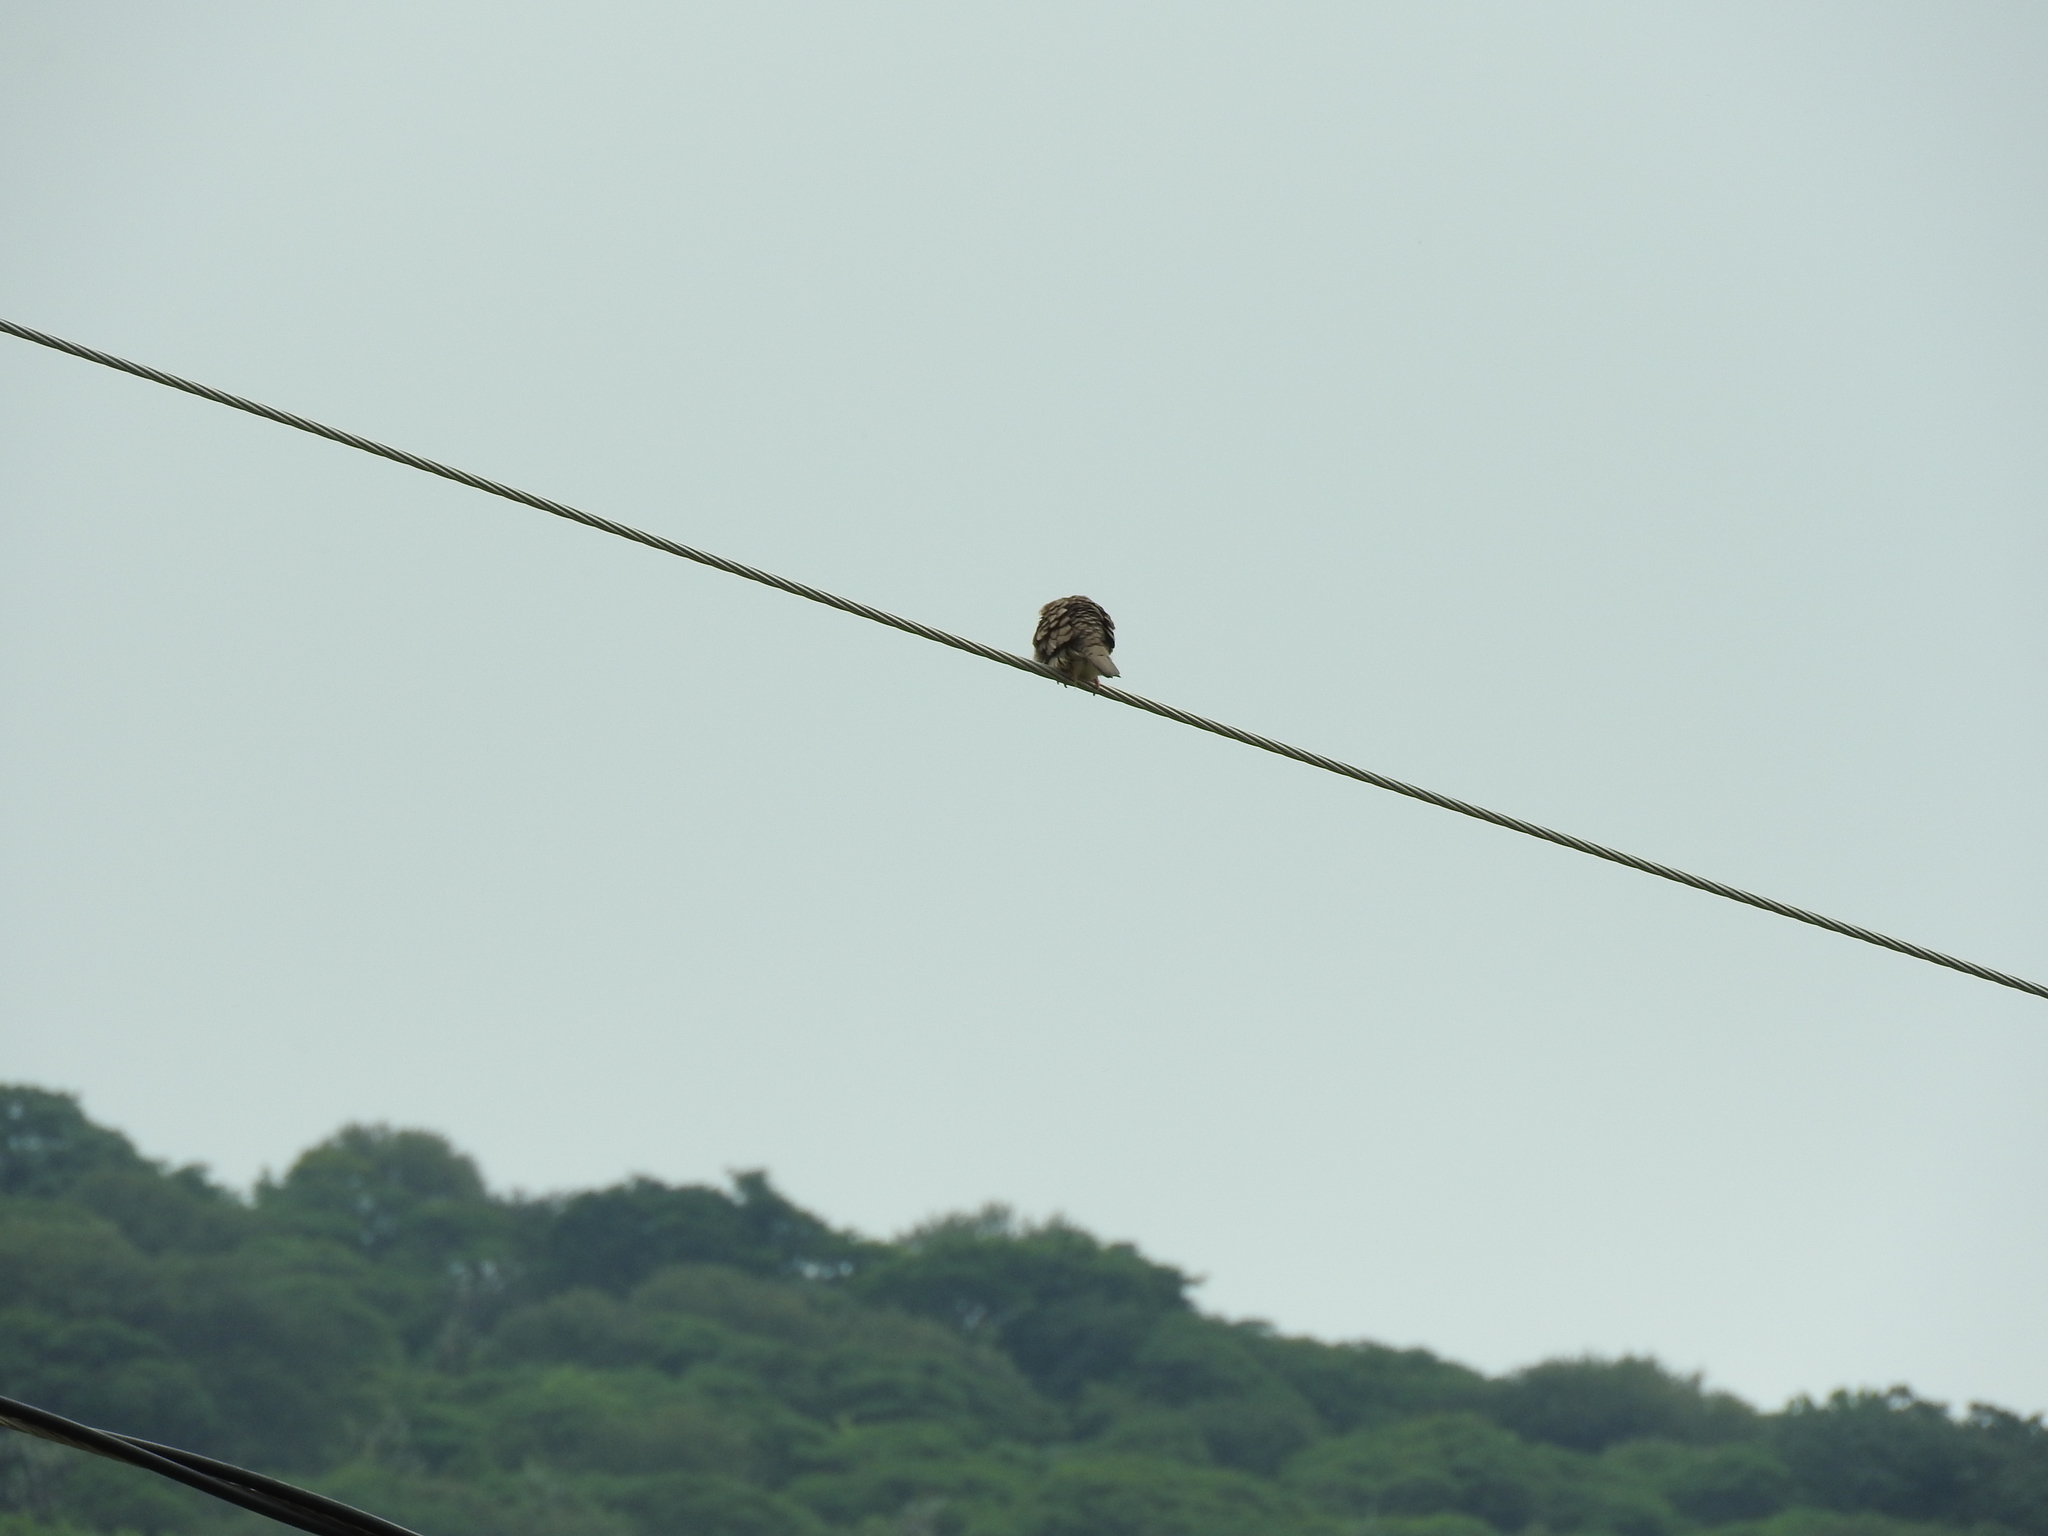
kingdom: Animalia
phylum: Chordata
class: Aves
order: Columbiformes
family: Columbidae
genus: Columbina
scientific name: Columbina inca
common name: Inca dove
